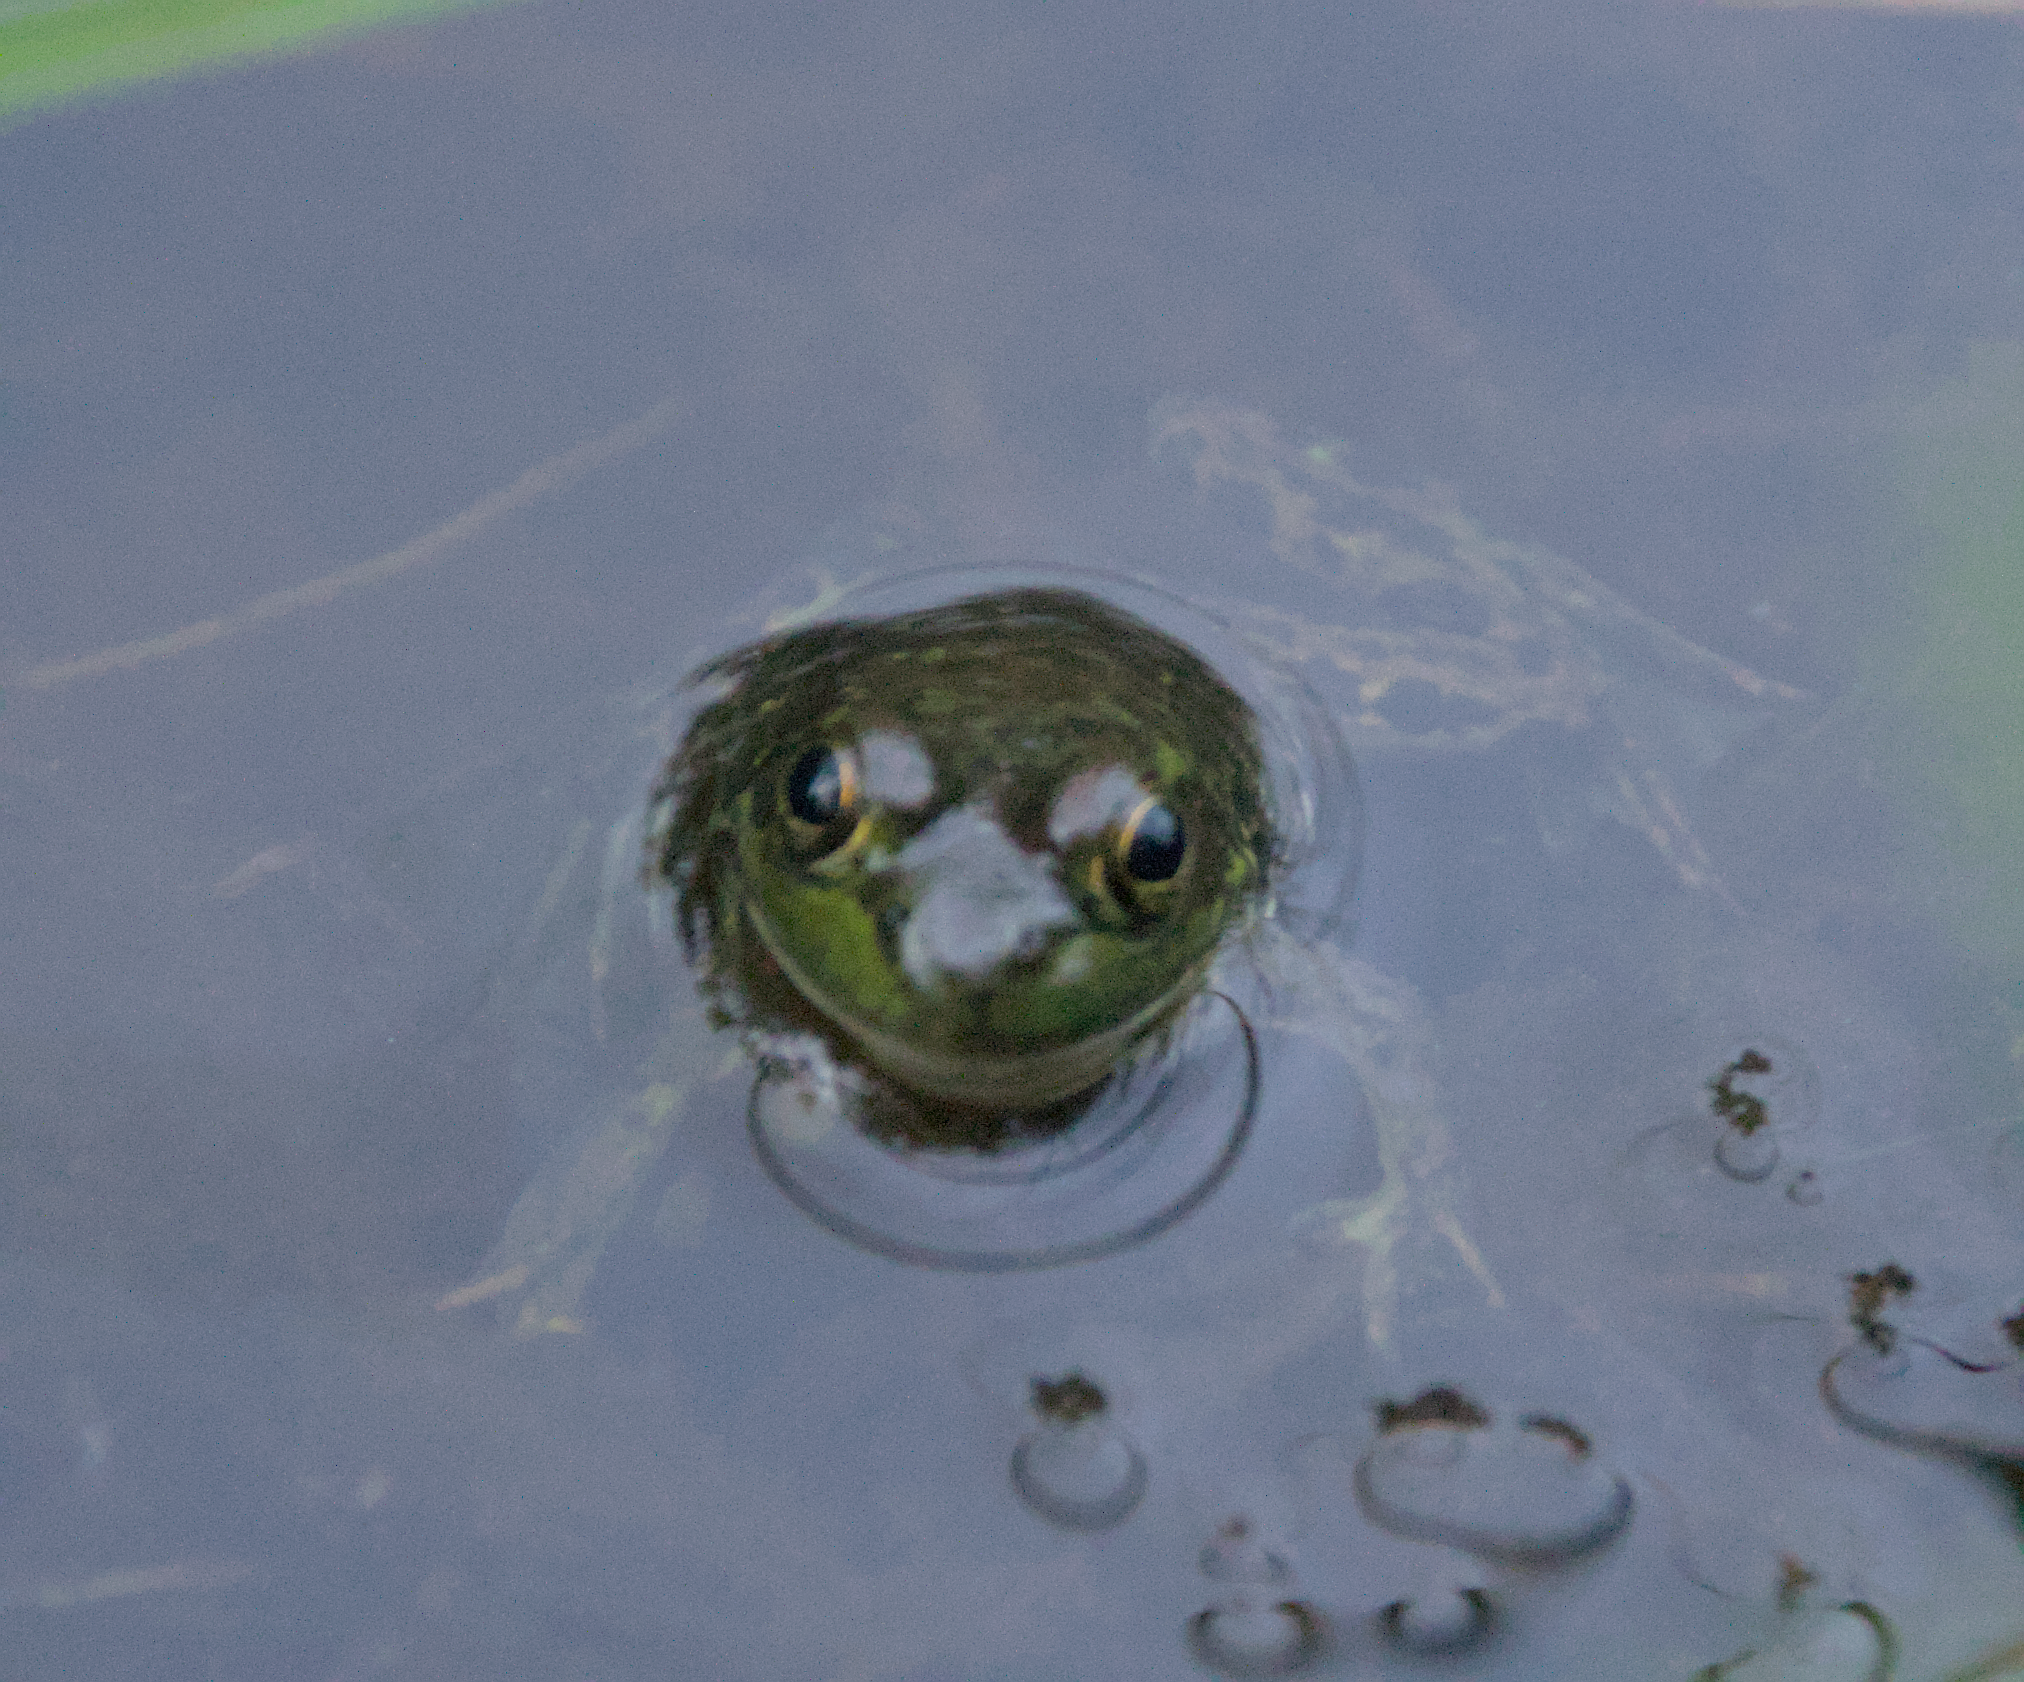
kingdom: Animalia
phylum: Chordata
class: Amphibia
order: Anura
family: Ranidae
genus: Lithobates
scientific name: Lithobates septentrionalis
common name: Mink frog
